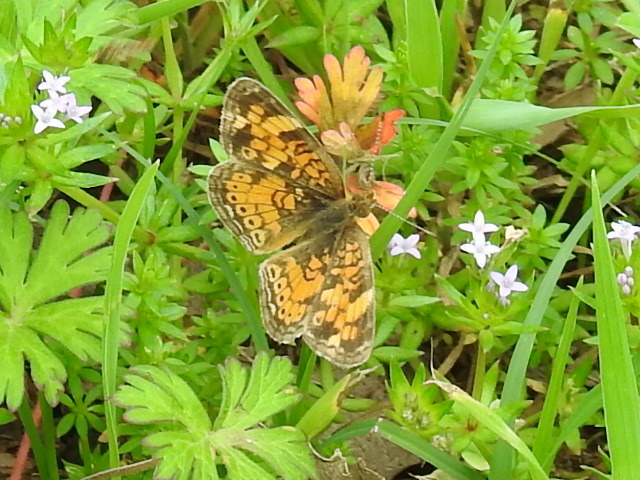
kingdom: Animalia
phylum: Arthropoda
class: Insecta
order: Lepidoptera
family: Nymphalidae
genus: Phyciodes
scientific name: Phyciodes tharos
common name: Pearl crescent
